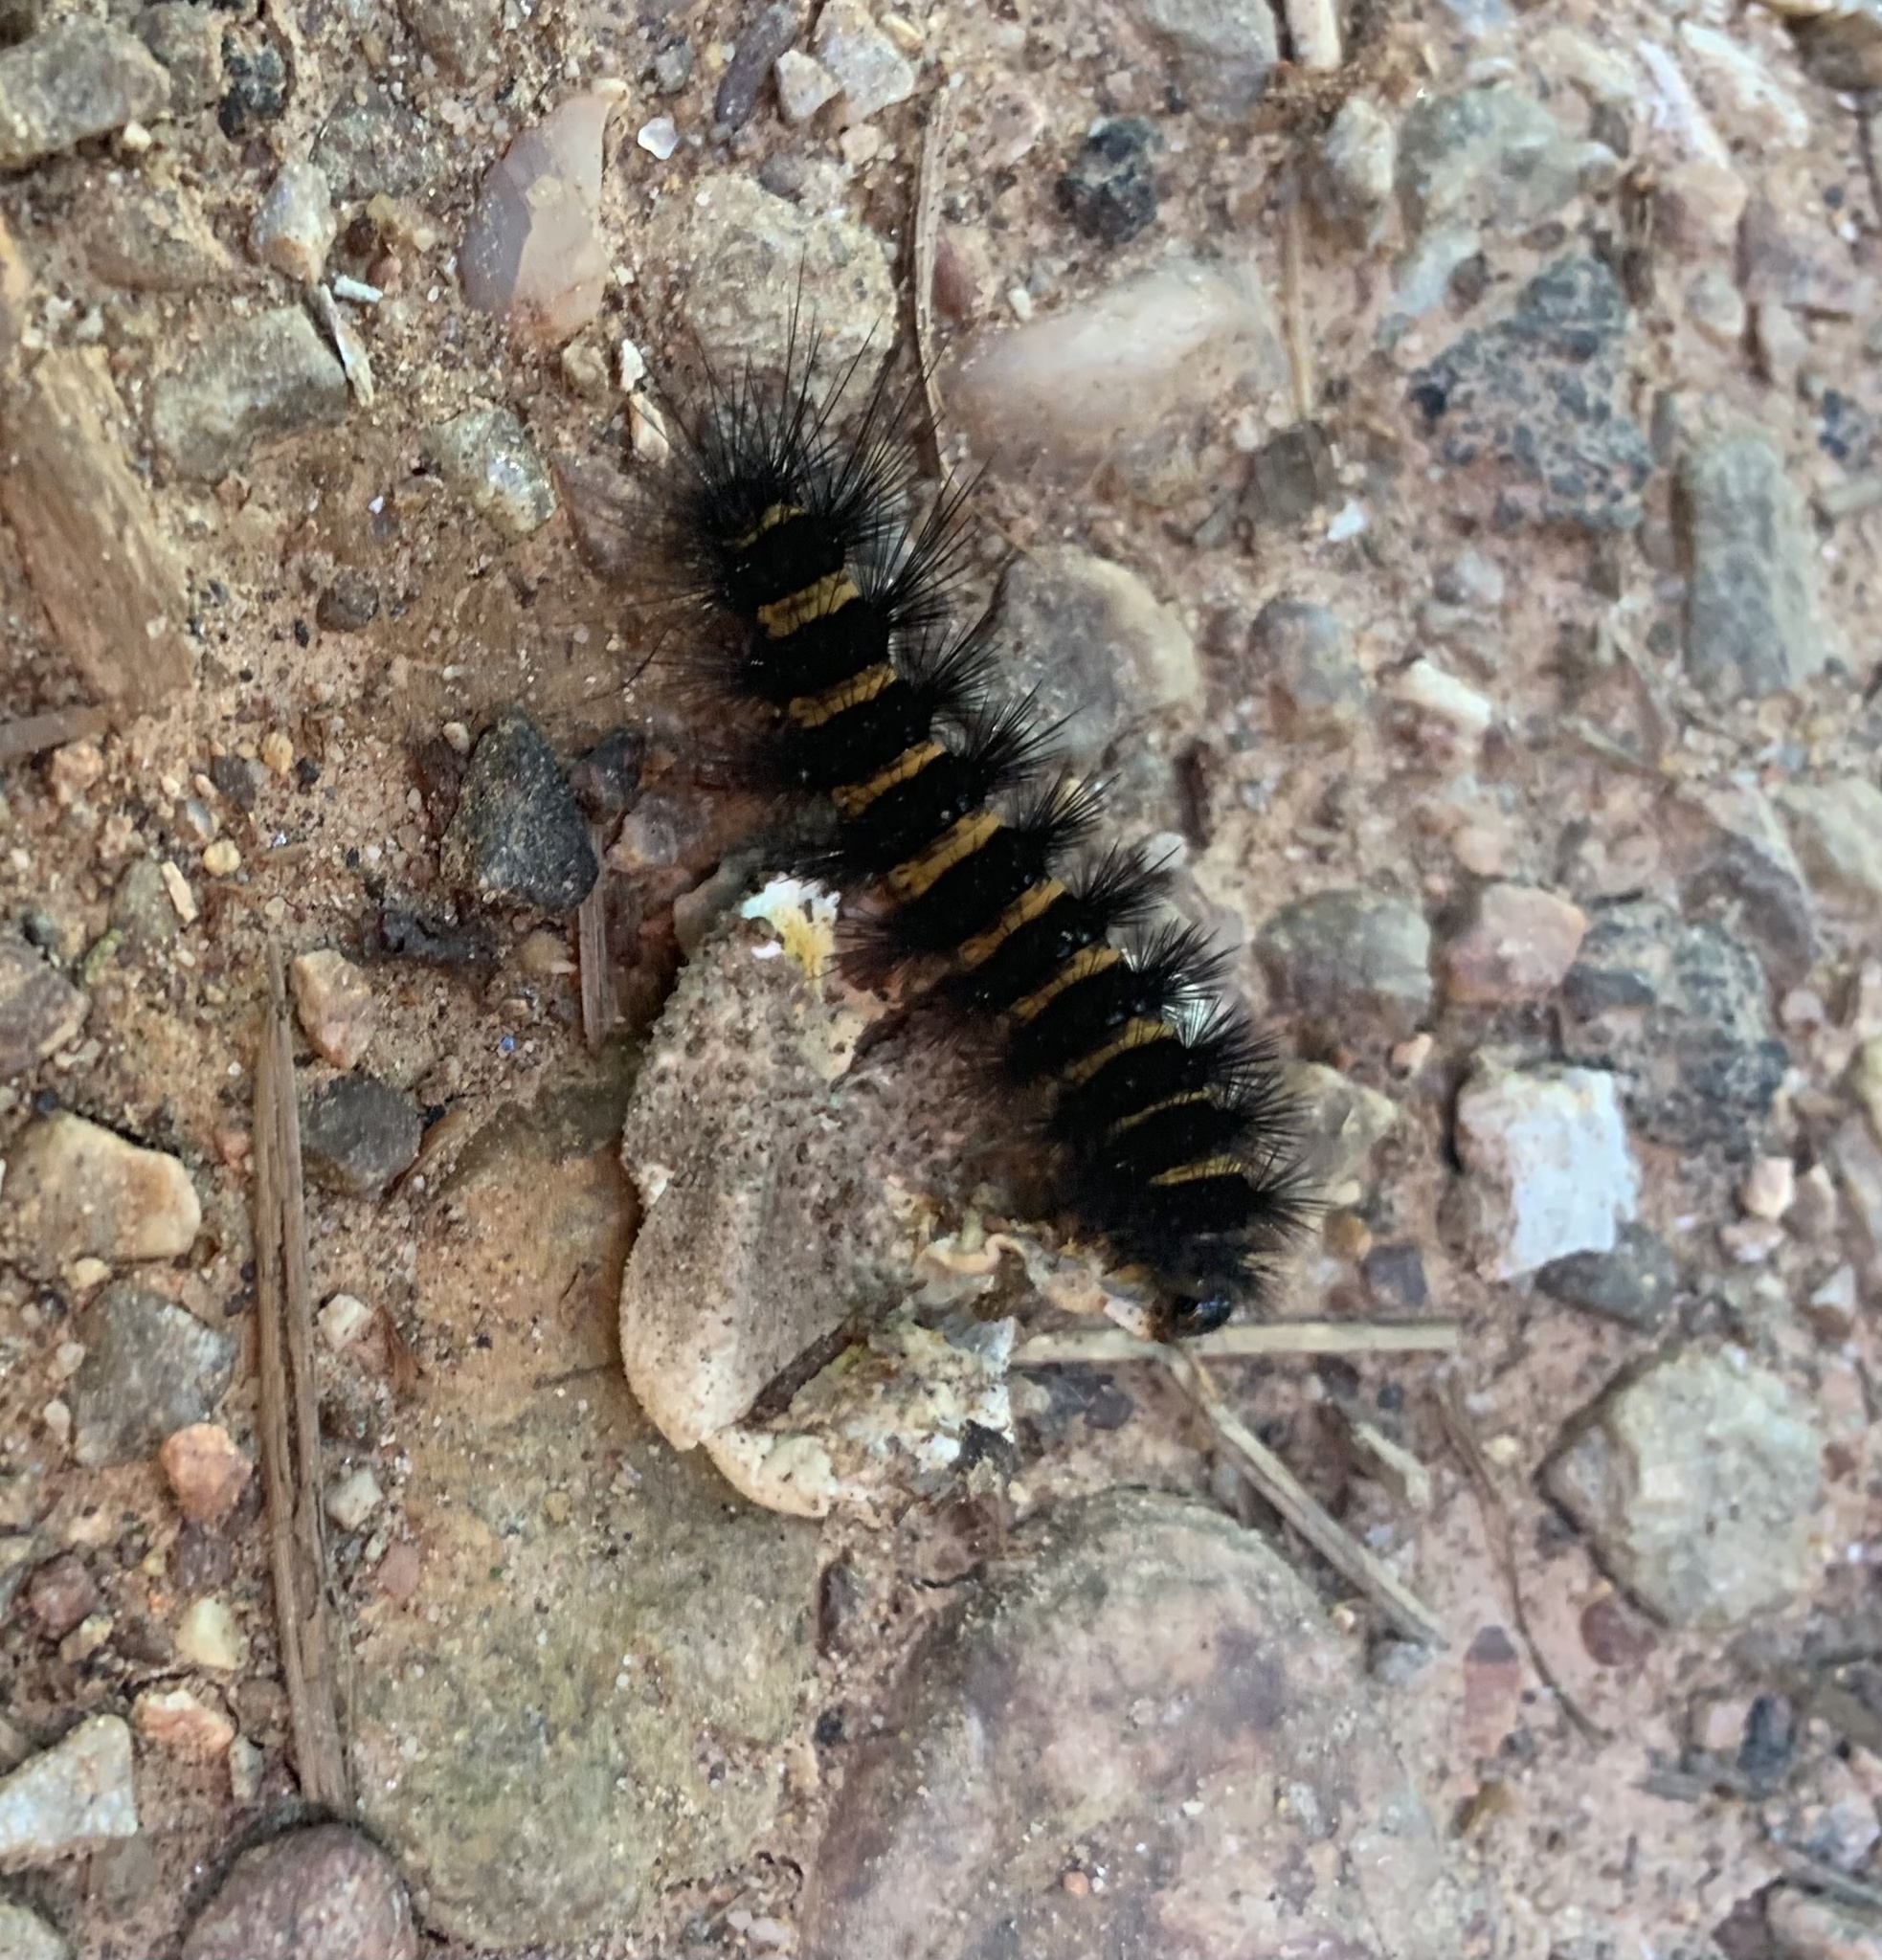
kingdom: Animalia
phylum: Arthropoda
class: Insecta
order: Lepidoptera
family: Erebidae
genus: Spilosoma
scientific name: Spilosoma congrua
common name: Agreeable tiger moth
